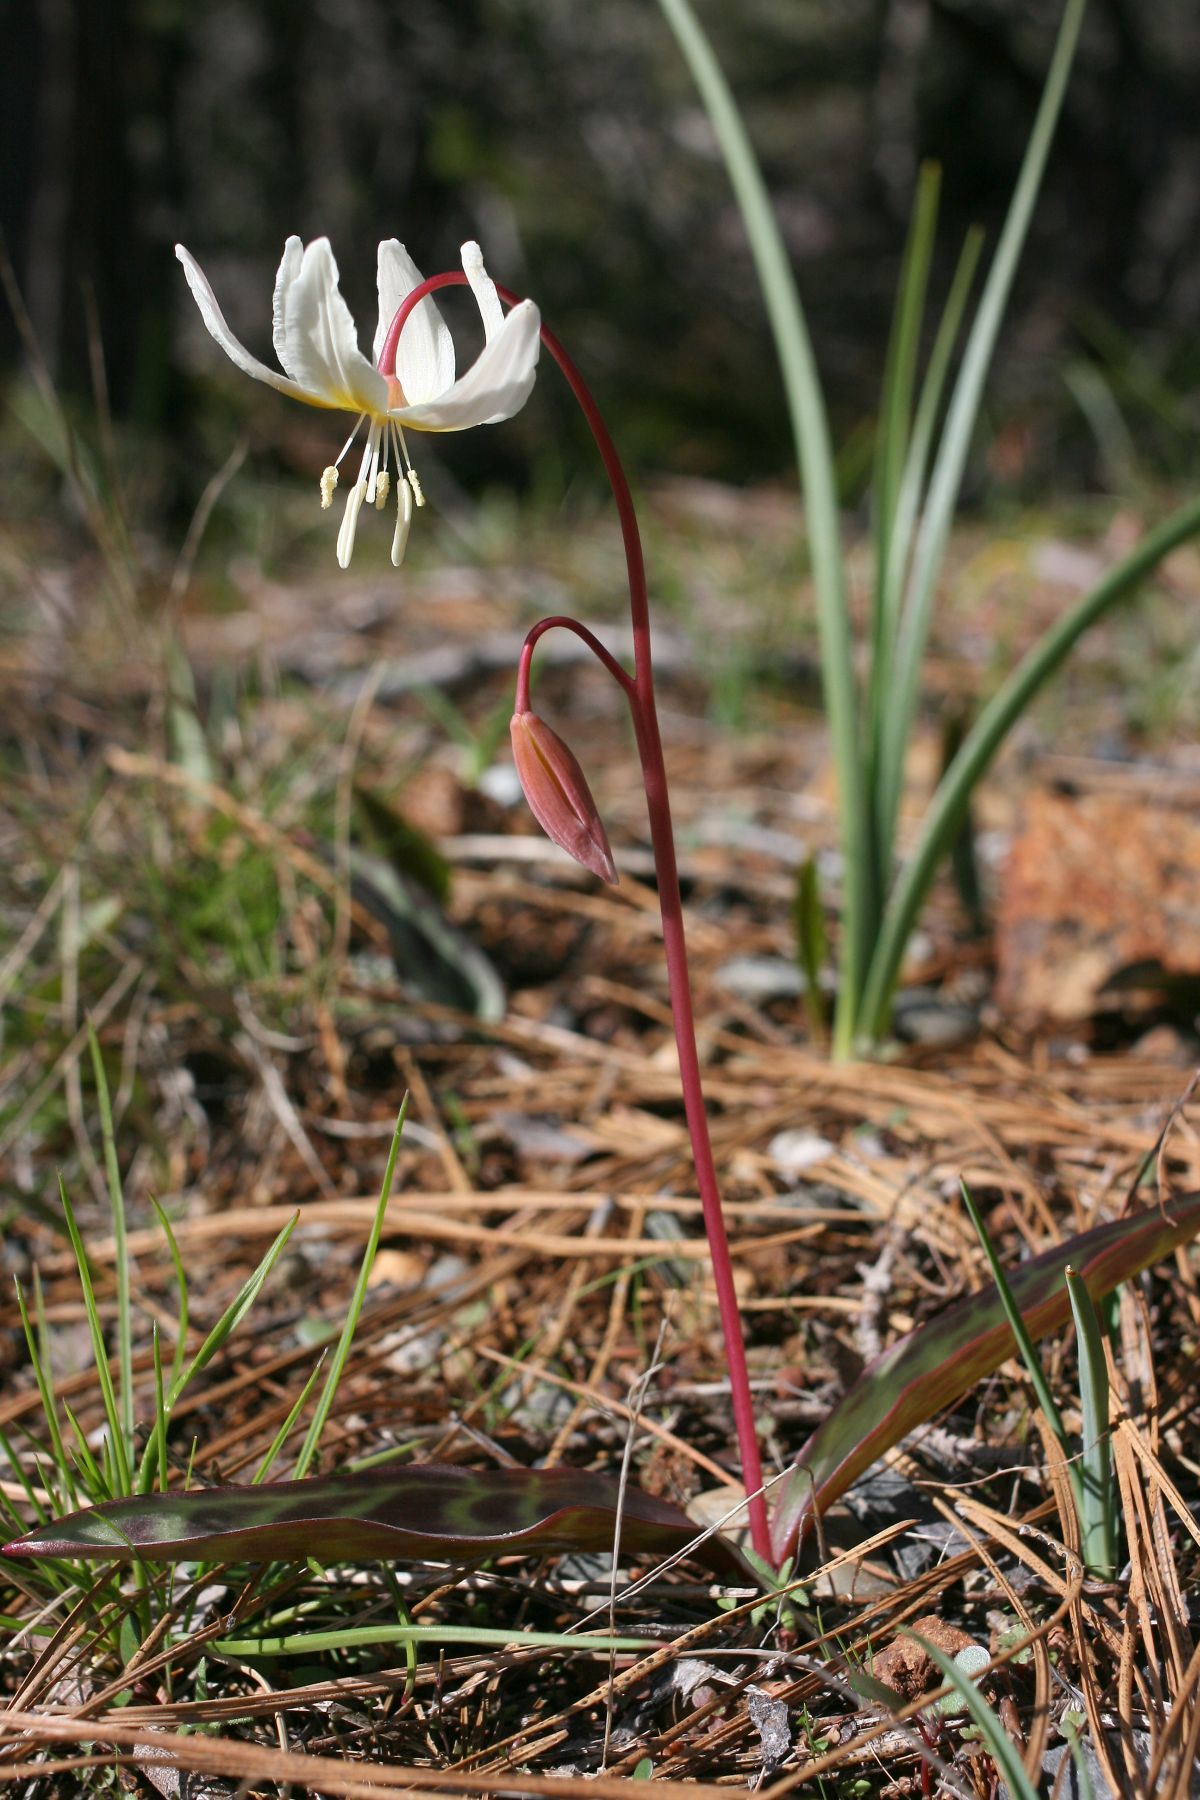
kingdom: Plantae
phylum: Tracheophyta
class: Liliopsida
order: Liliales
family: Liliaceae
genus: Erythronium
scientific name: Erythronium citrinum
